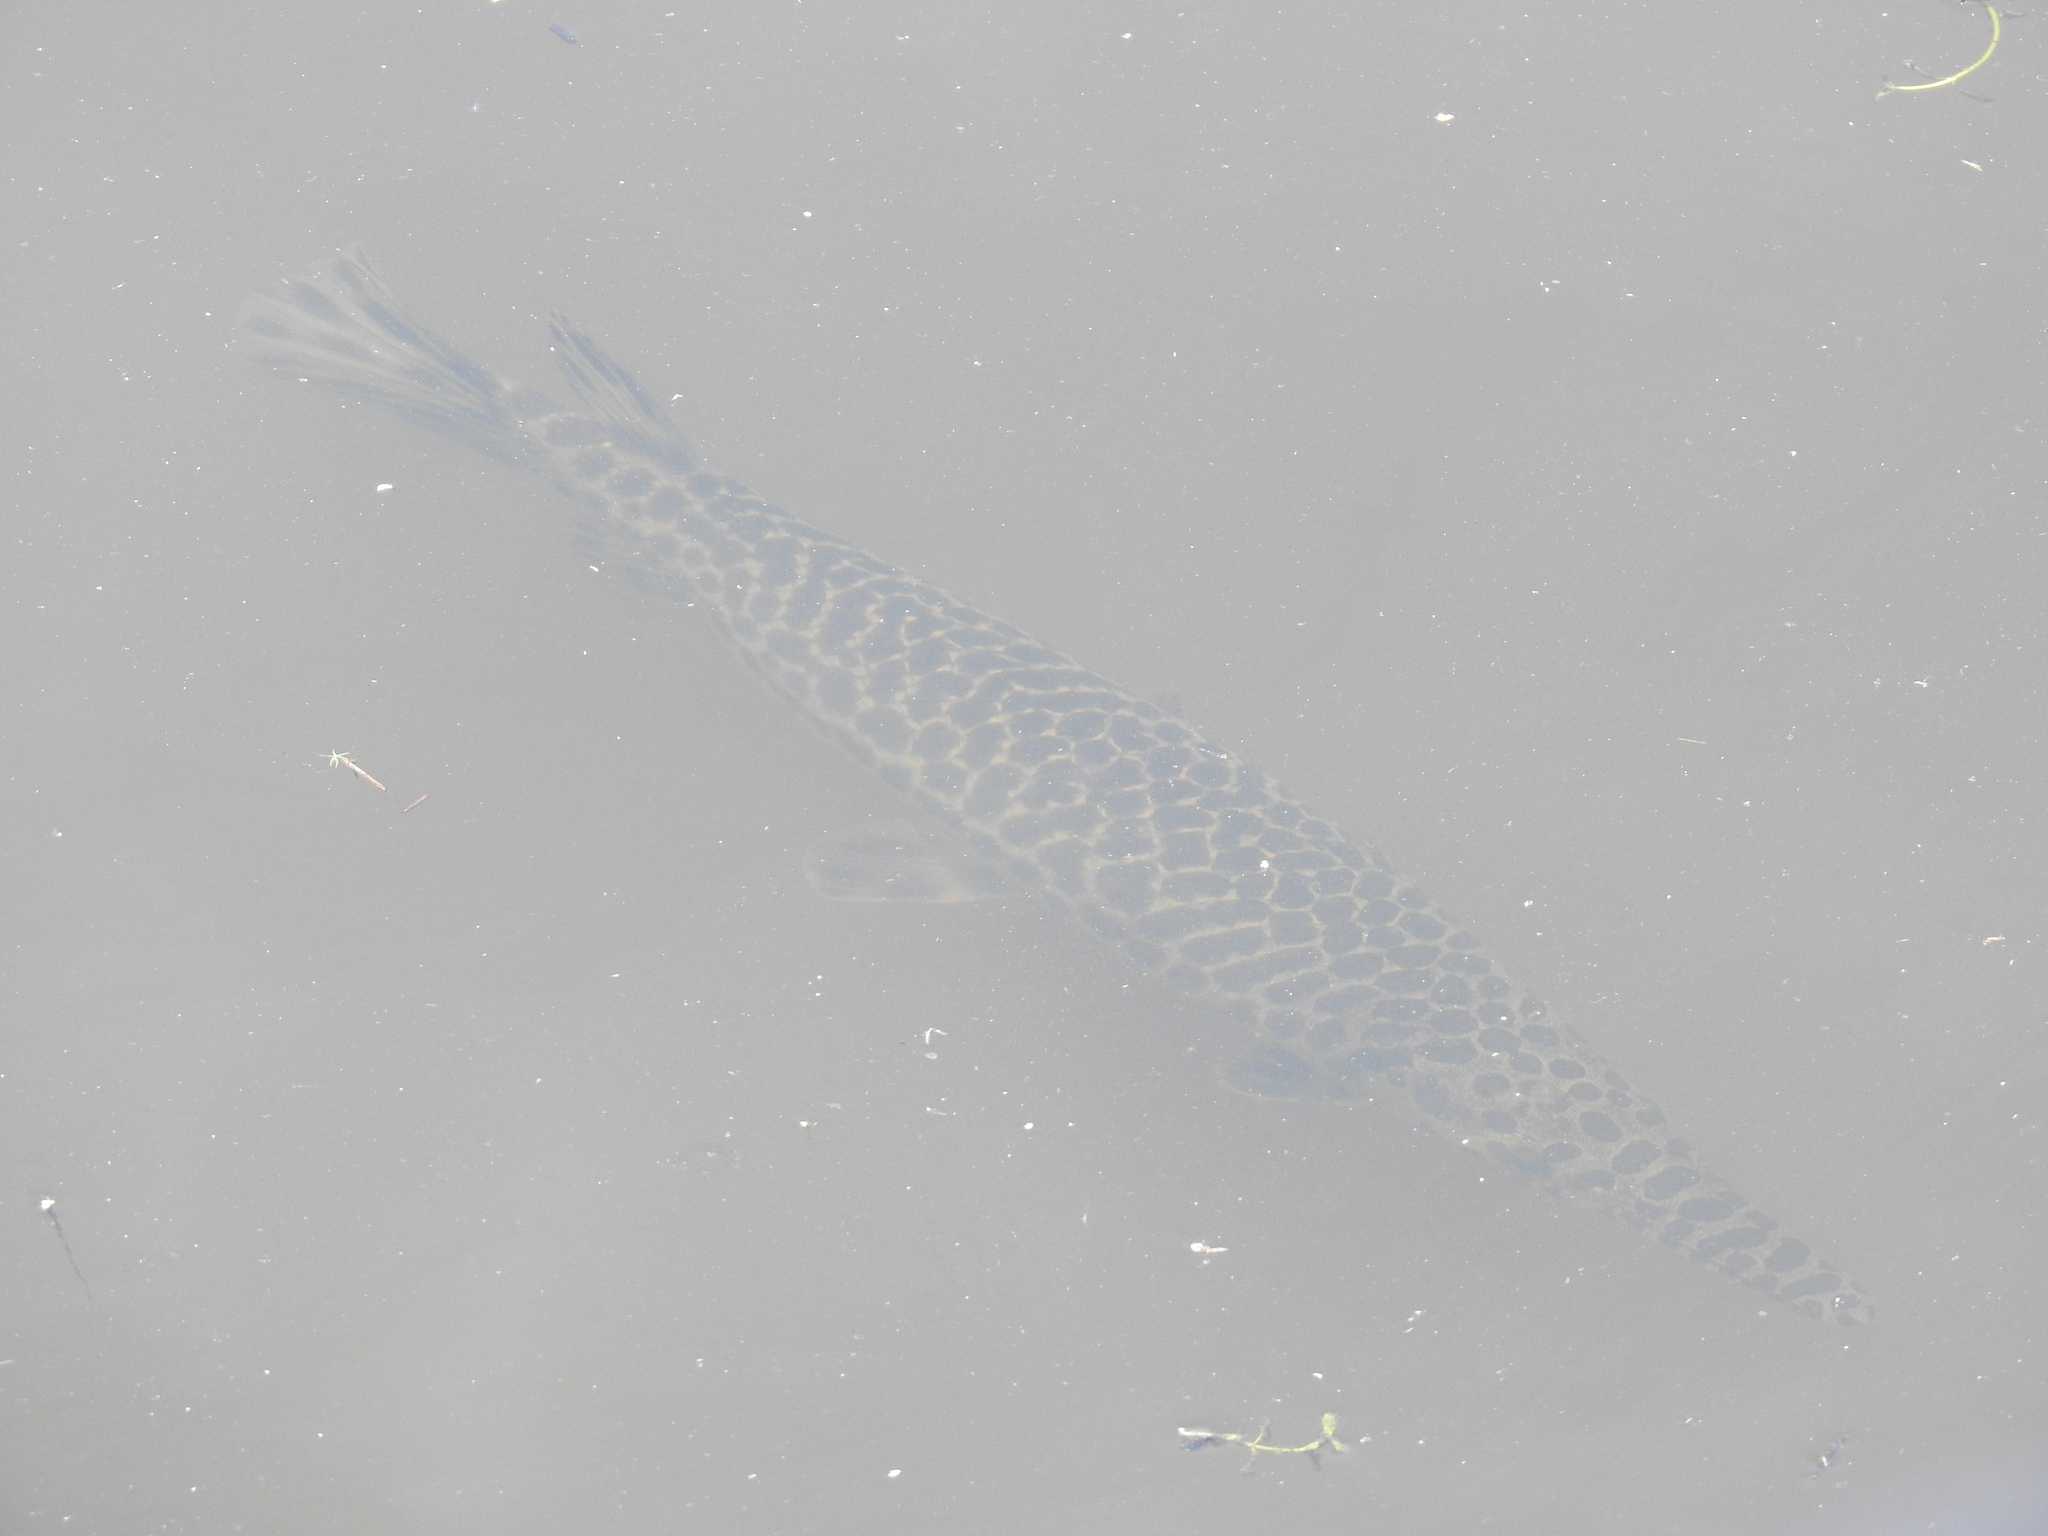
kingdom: Animalia
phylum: Chordata
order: Lepisosteiformes
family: Lepisosteidae
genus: Lepisosteus
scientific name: Lepisosteus oculatus
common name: Spotted gar
